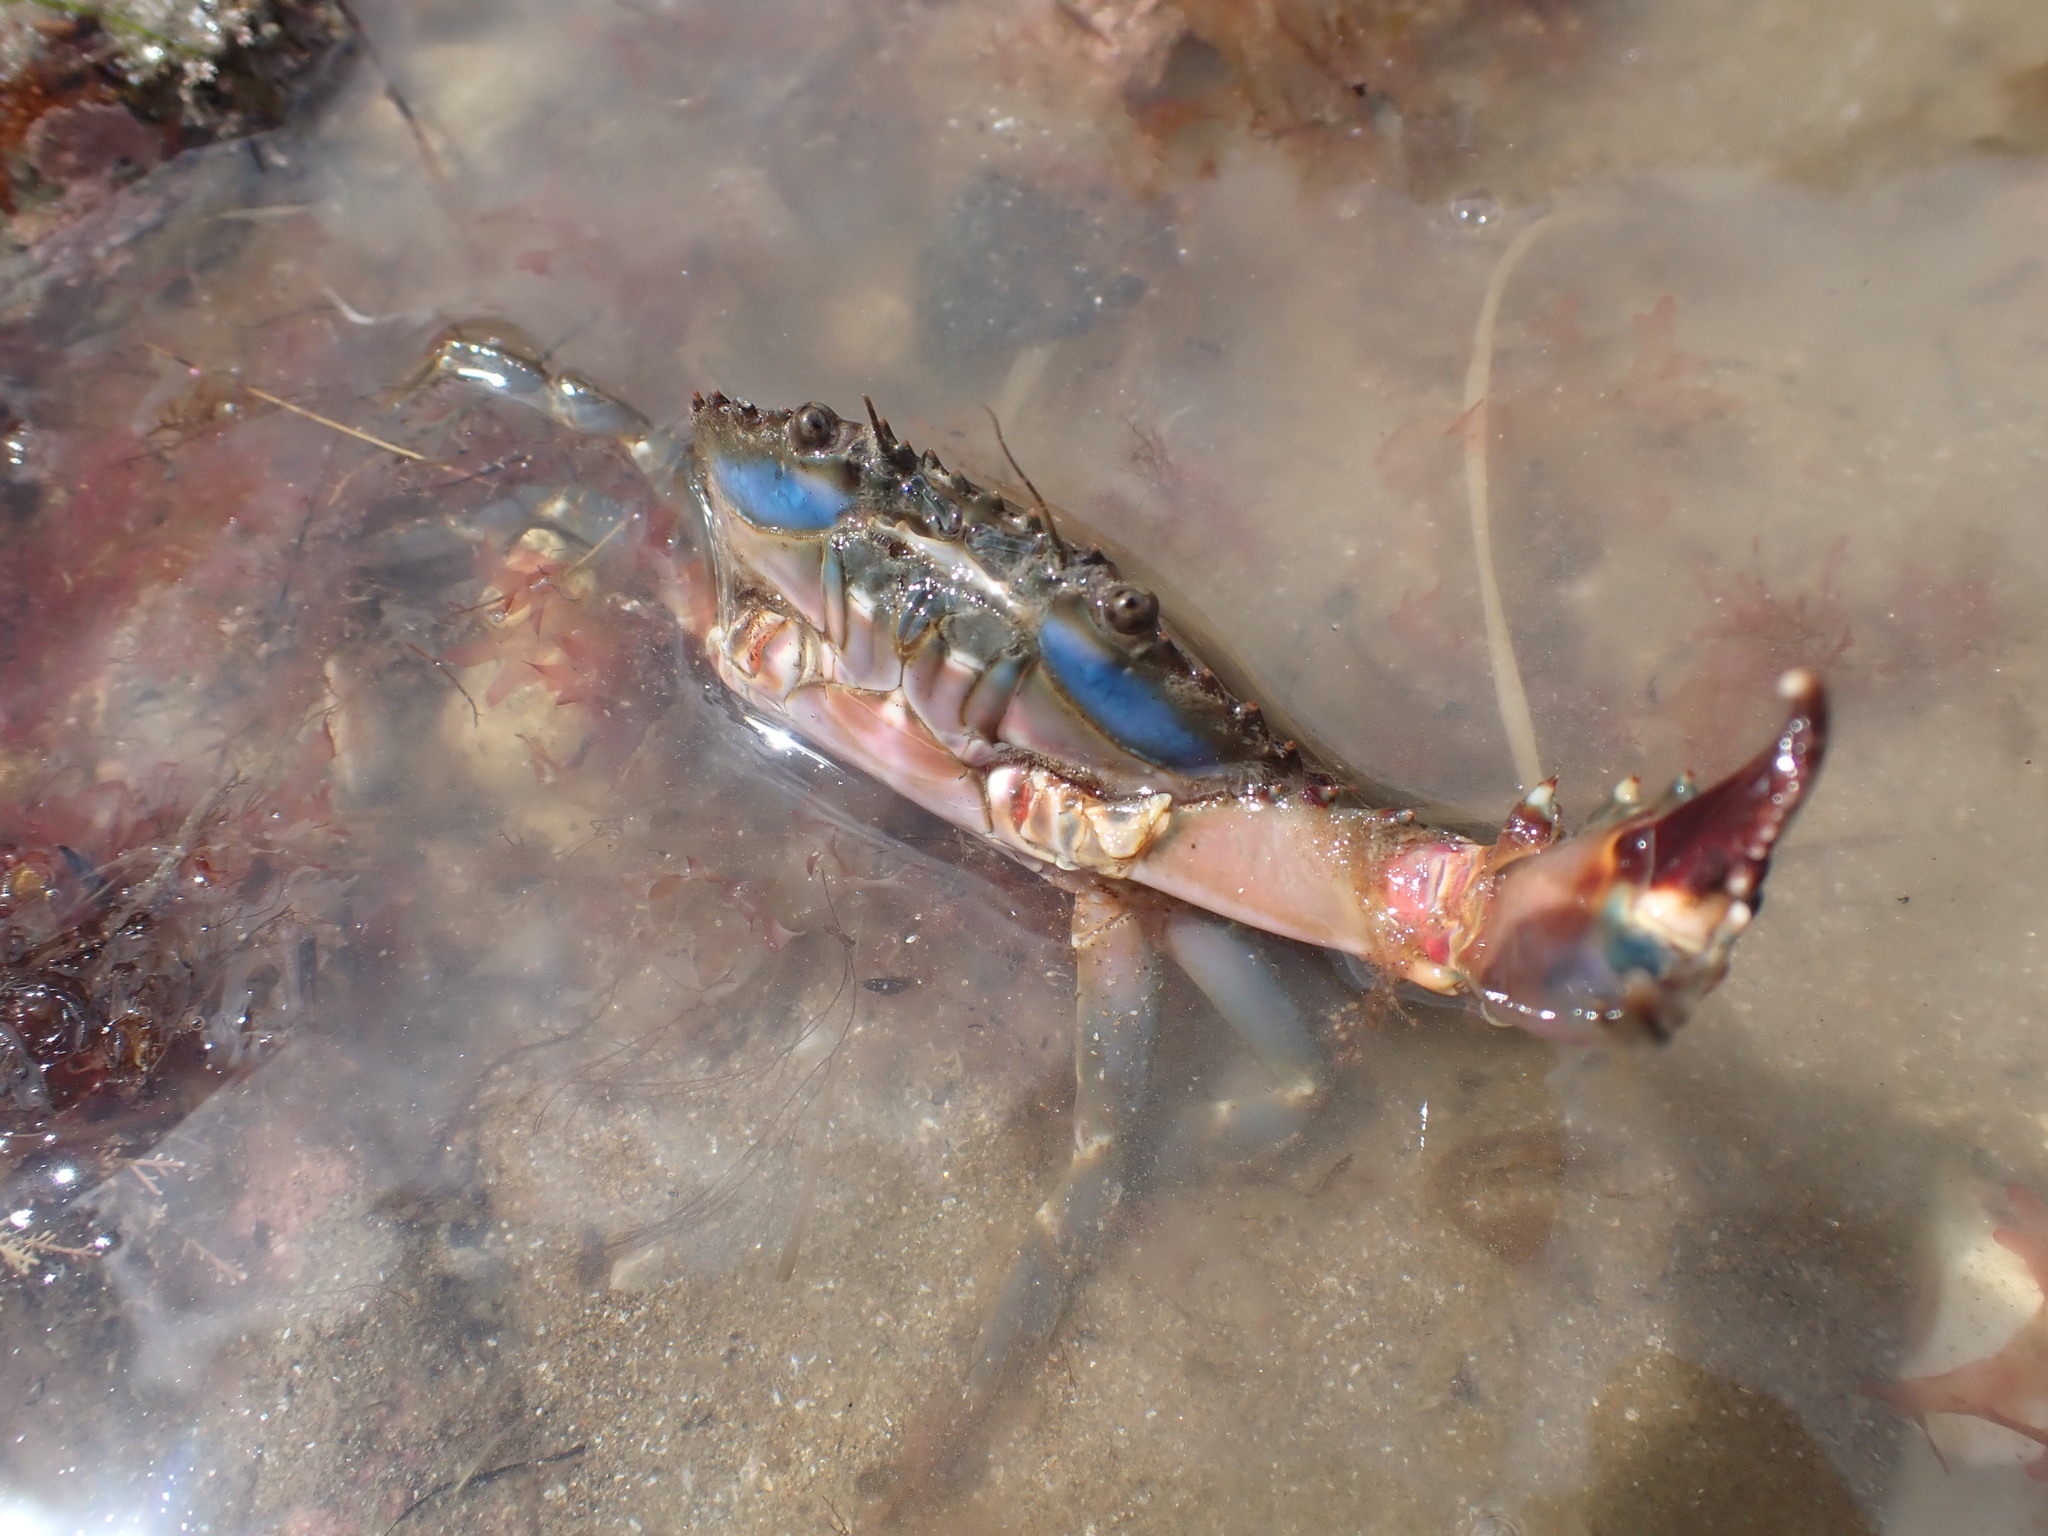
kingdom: Animalia
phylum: Arthropoda
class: Malacostraca
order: Decapoda
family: Portunidae
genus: Charybdis
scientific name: Charybdis japonica
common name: Asian paddle crab
